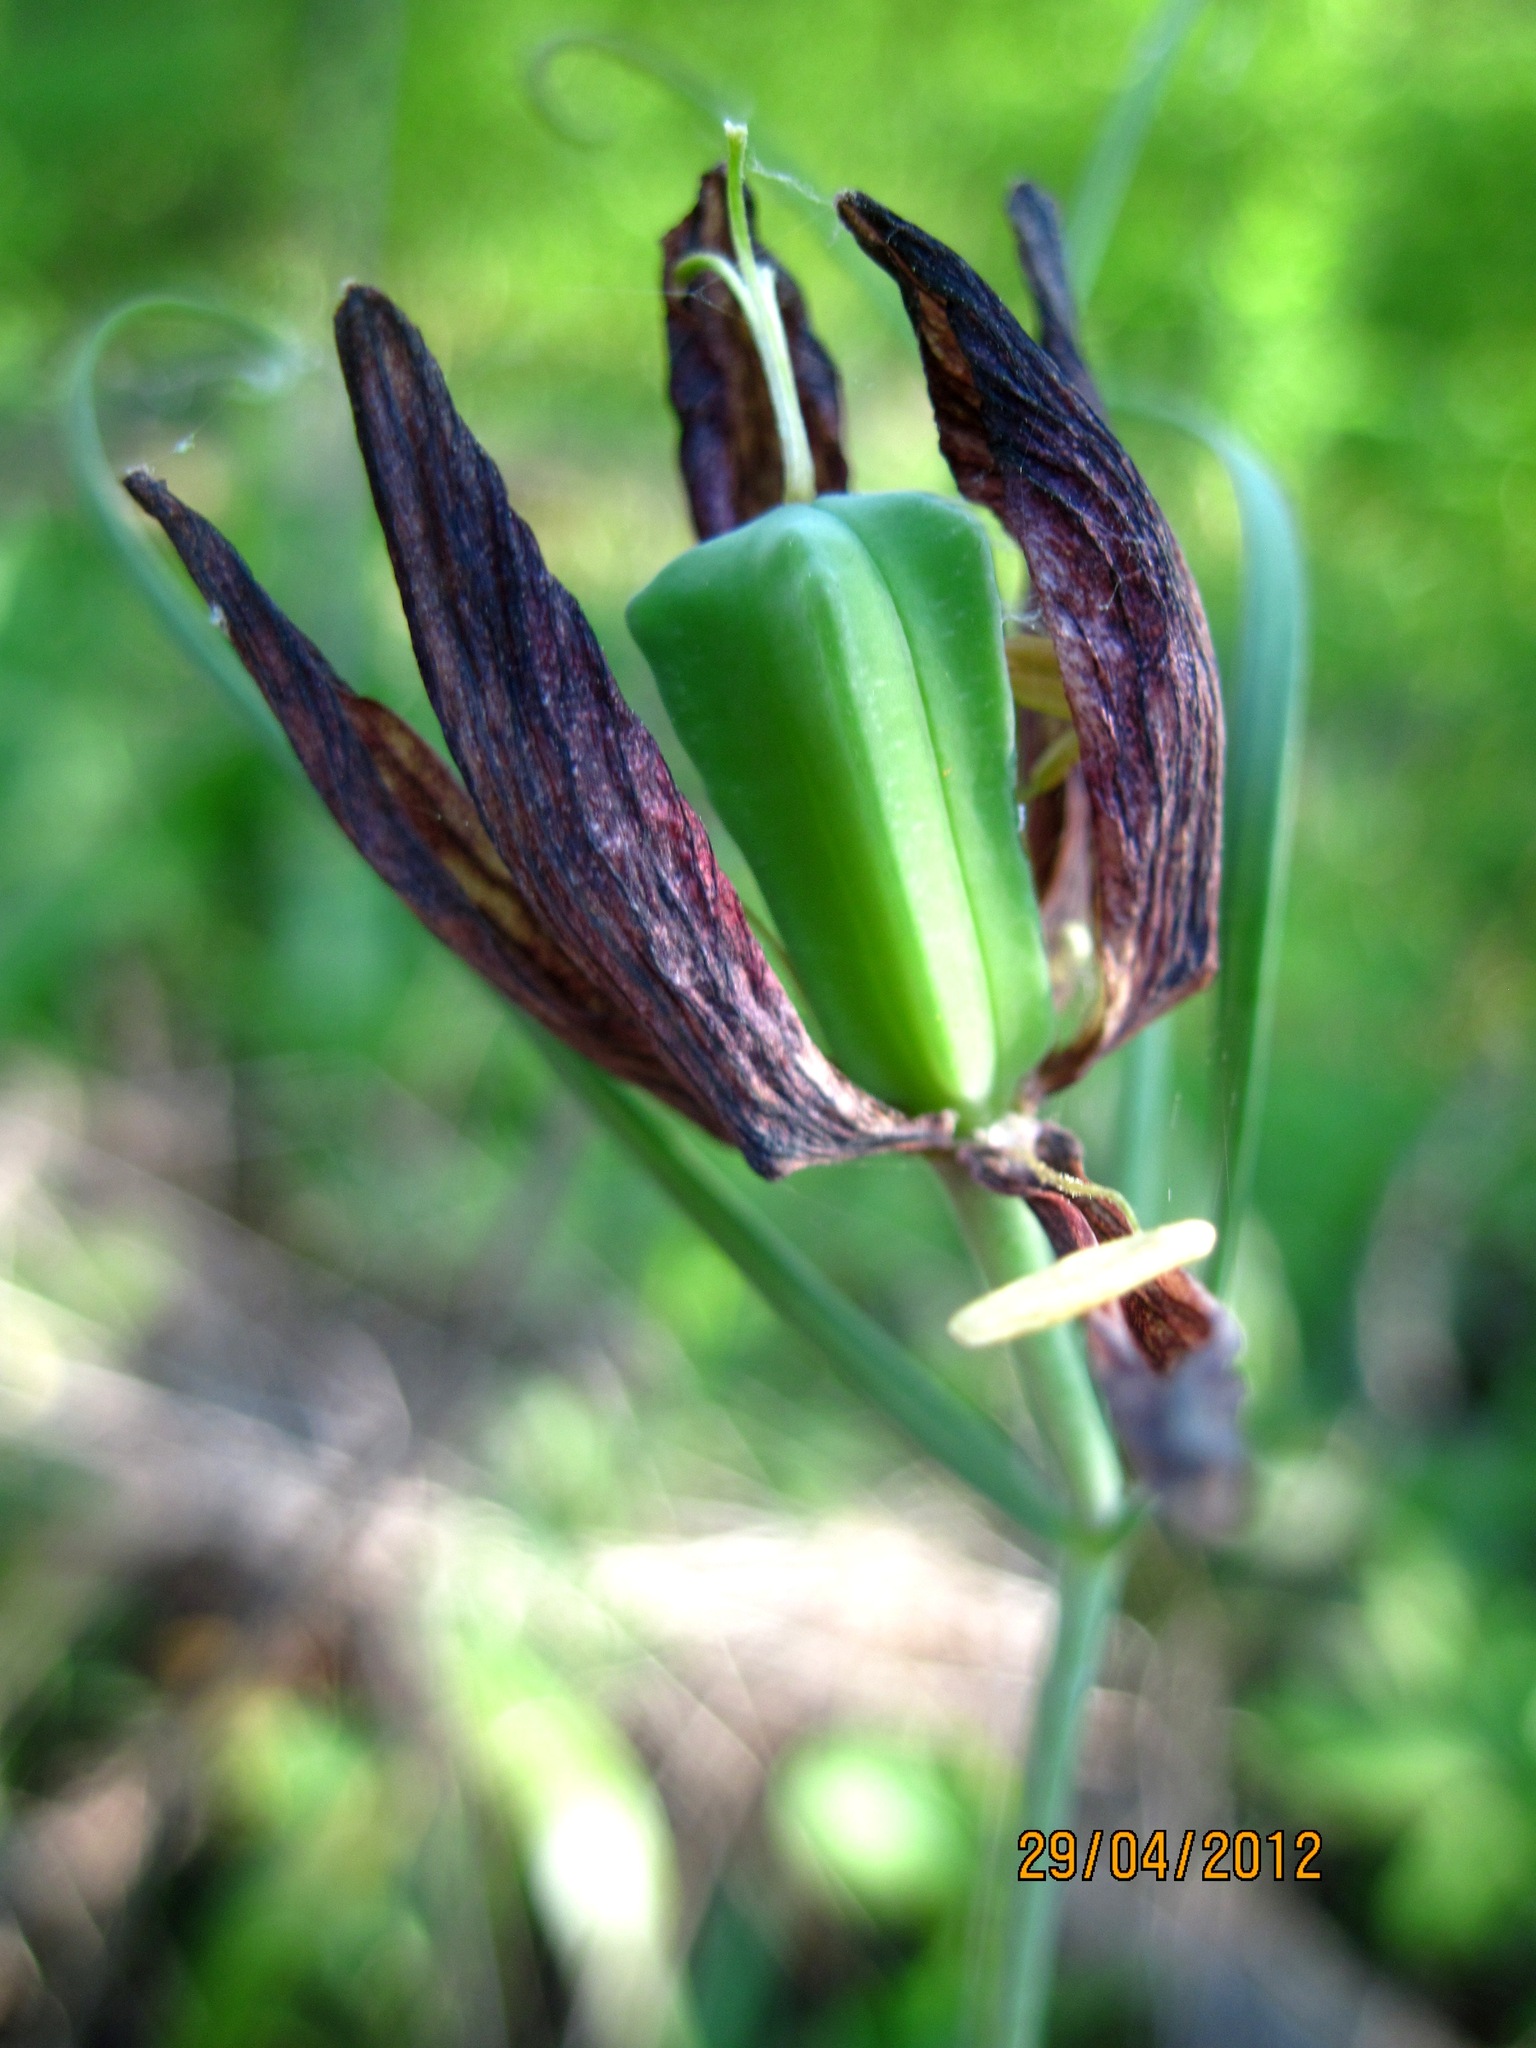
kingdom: Plantae
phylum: Tracheophyta
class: Liliopsida
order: Liliales
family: Liliaceae
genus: Fritillaria
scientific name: Fritillaria ruthenica
